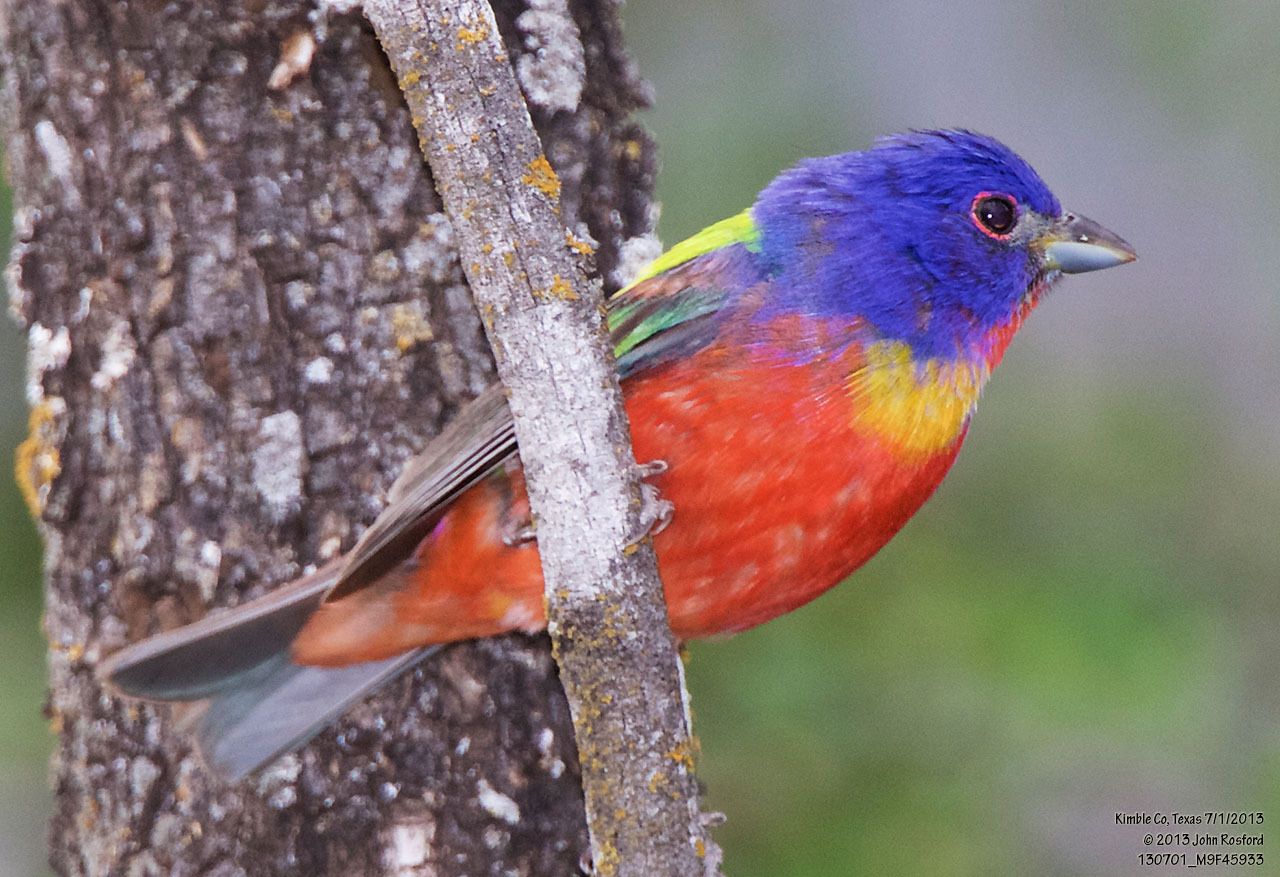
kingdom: Animalia
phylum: Chordata
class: Aves
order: Passeriformes
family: Cardinalidae
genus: Passerina
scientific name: Passerina ciris
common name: Painted bunting
